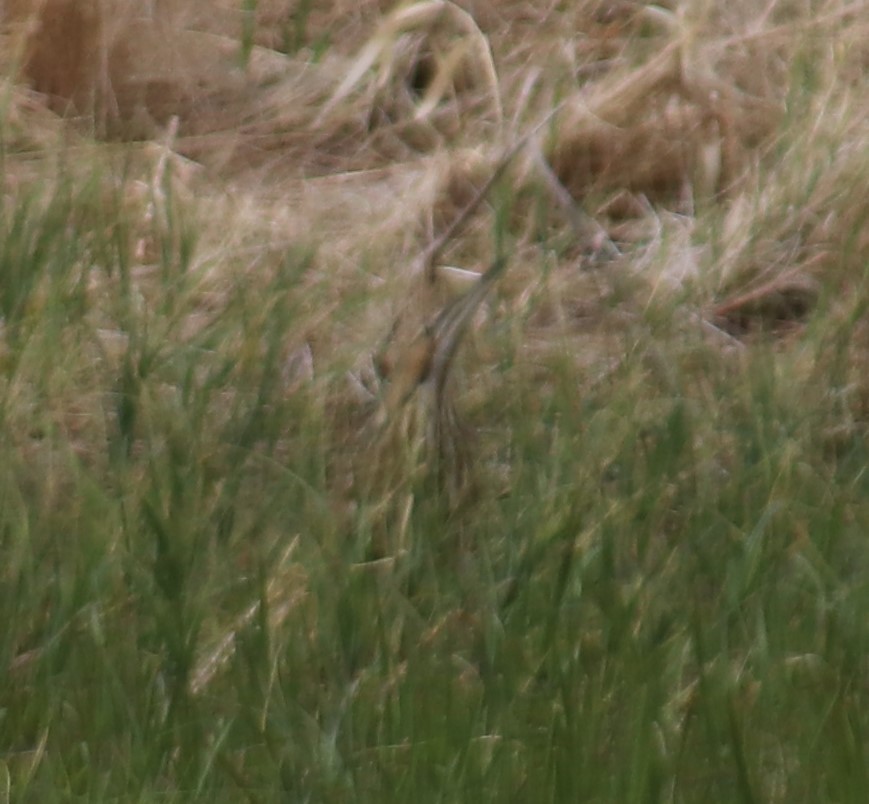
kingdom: Animalia
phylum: Chordata
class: Aves
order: Pelecaniformes
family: Ardeidae
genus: Botaurus
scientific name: Botaurus lentiginosus
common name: American bittern
